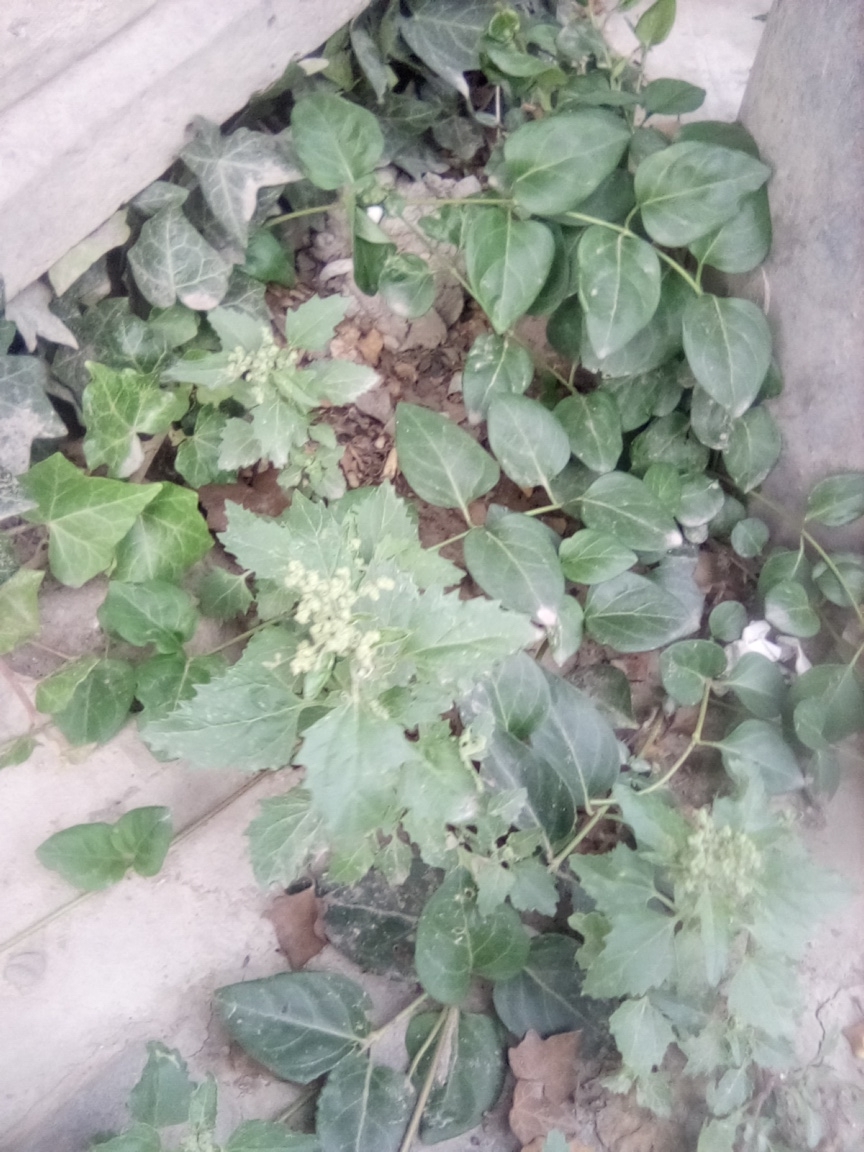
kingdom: Plantae
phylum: Tracheophyta
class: Magnoliopsida
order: Caryophyllales
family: Amaranthaceae
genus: Chenopodiastrum
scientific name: Chenopodiastrum murale
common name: Sowbane
